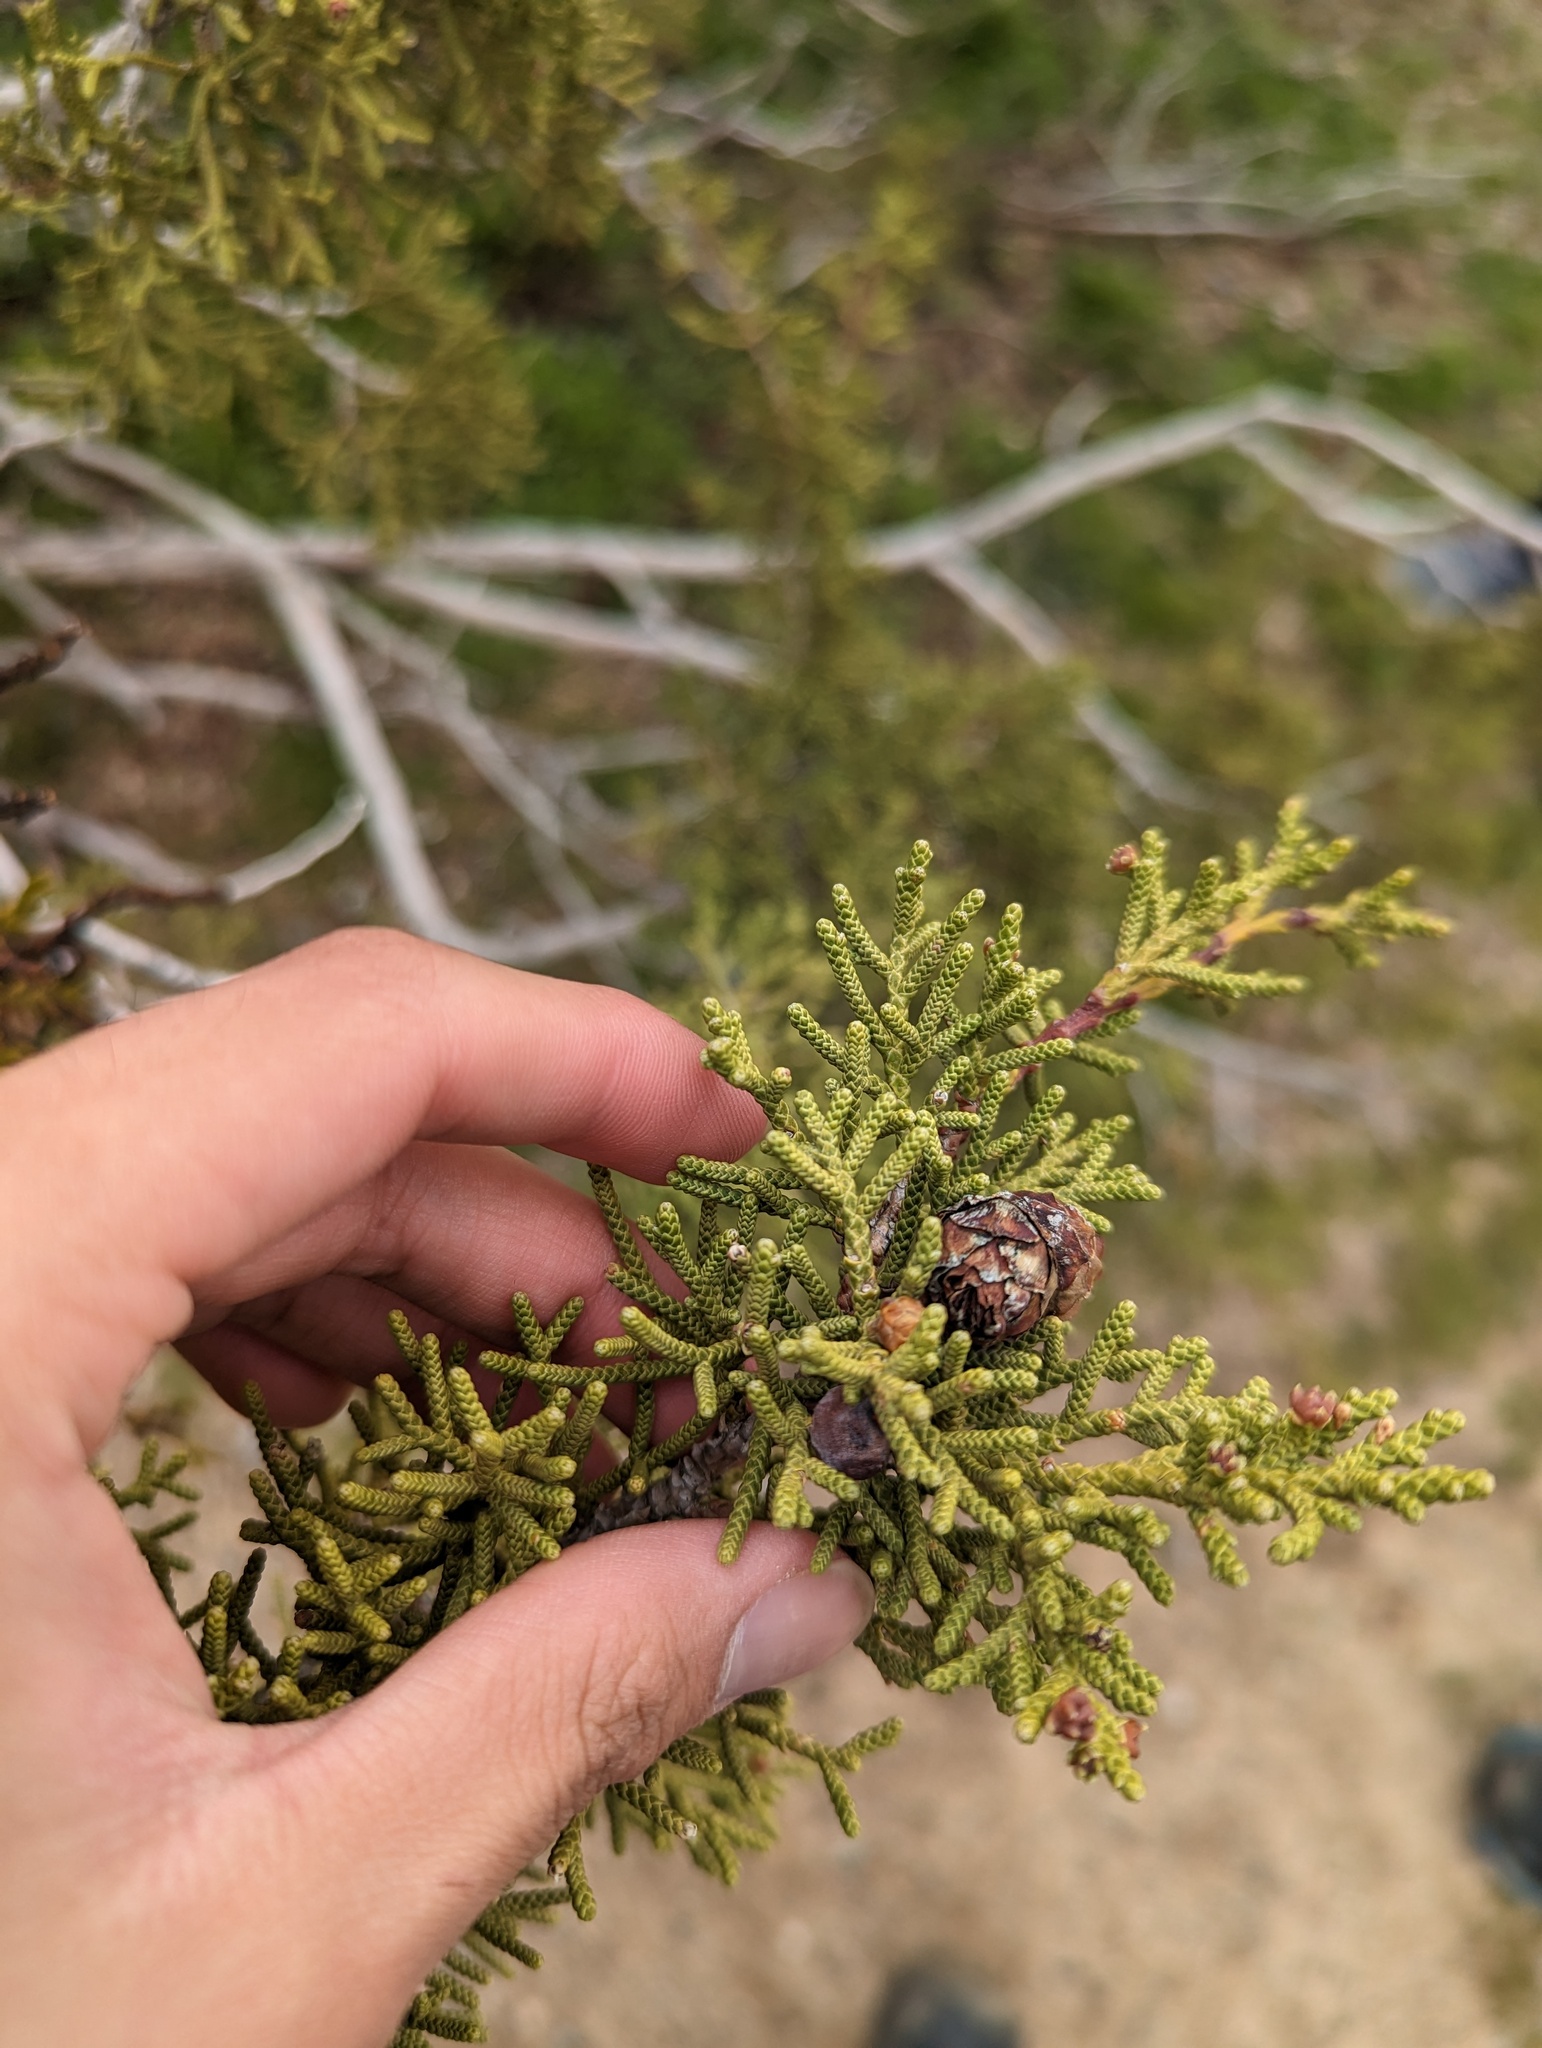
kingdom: Plantae
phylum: Tracheophyta
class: Pinopsida
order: Pinales
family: Cupressaceae
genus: Juniperus
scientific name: Juniperus californica
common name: California juniper
